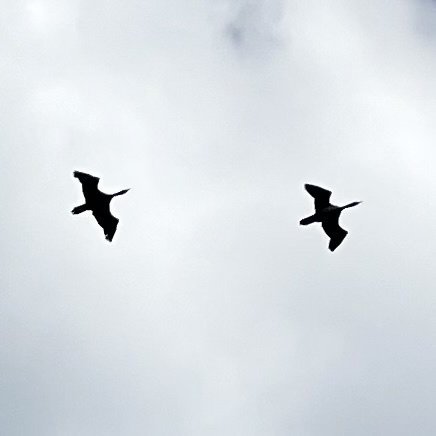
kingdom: Animalia
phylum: Chordata
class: Aves
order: Suliformes
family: Phalacrocoracidae
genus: Phalacrocorax
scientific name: Phalacrocorax auritus
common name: Double-crested cormorant
